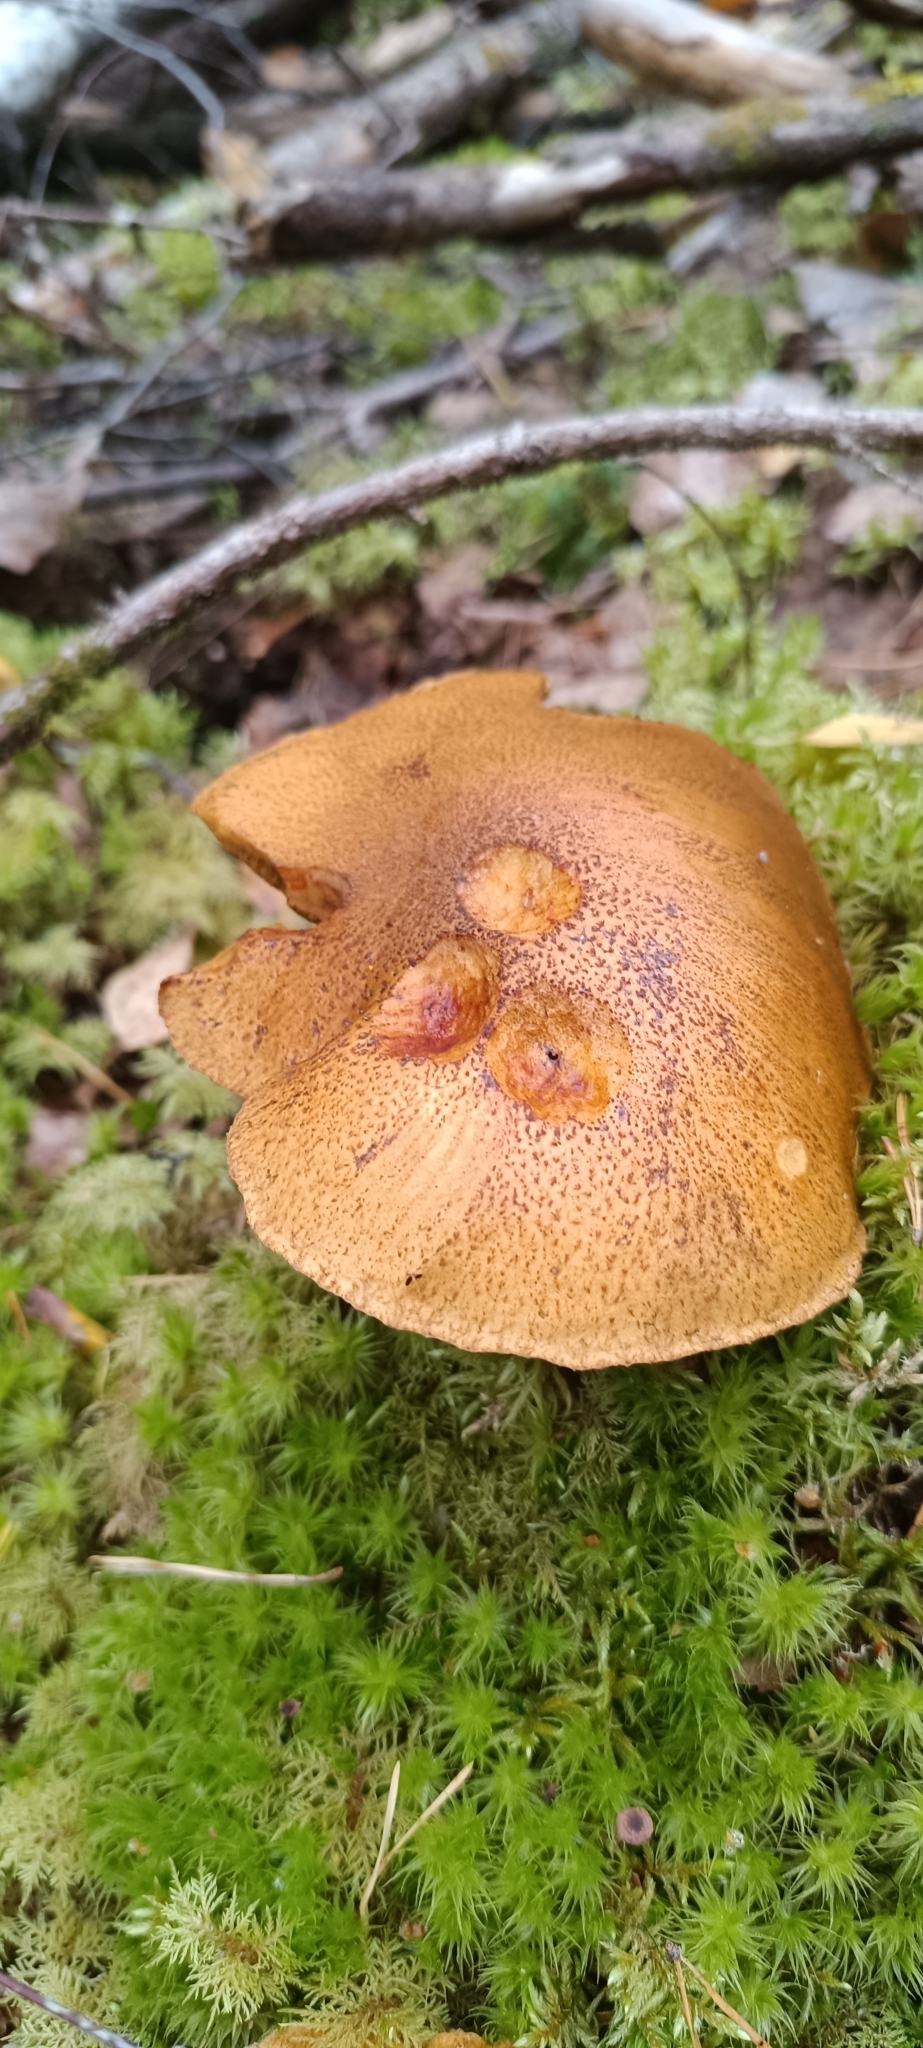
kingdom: Fungi
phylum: Basidiomycota
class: Agaricomycetes
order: Boletales
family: Suillaceae
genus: Suillus
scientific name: Suillus variegatus
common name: Velvet bolete
